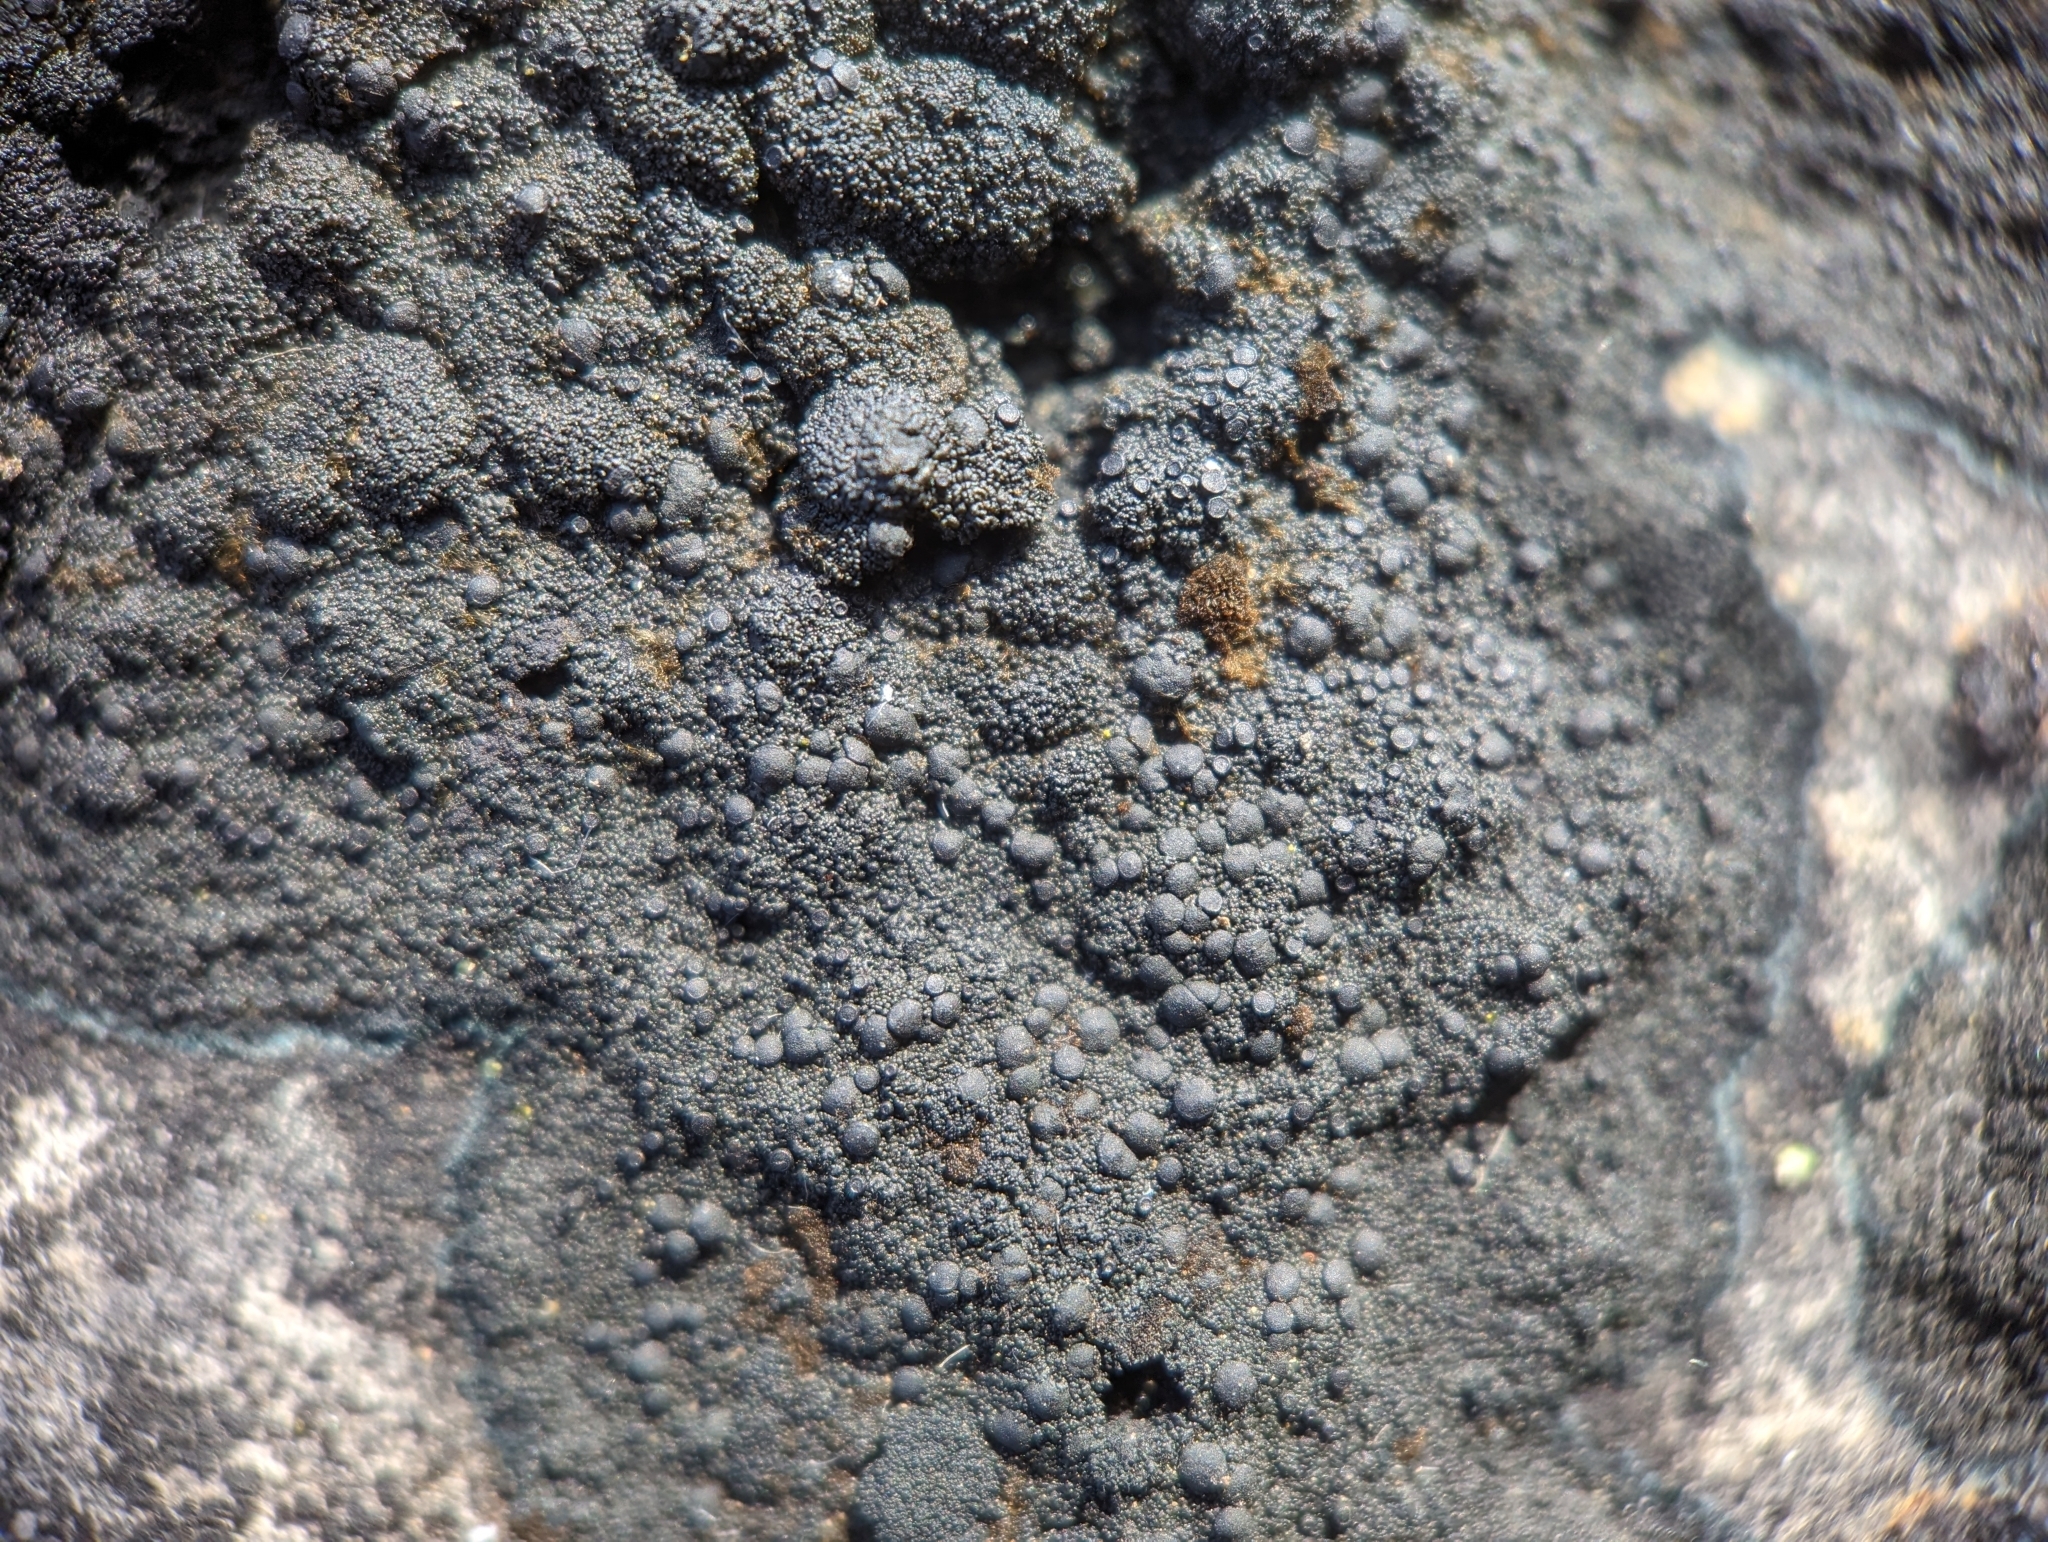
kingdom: Fungi
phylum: Ascomycota
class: Lecanoromycetes
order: Peltigerales
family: Placynthiaceae
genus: Placynthium
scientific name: Placynthium nigrum
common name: Blackthread lichen
